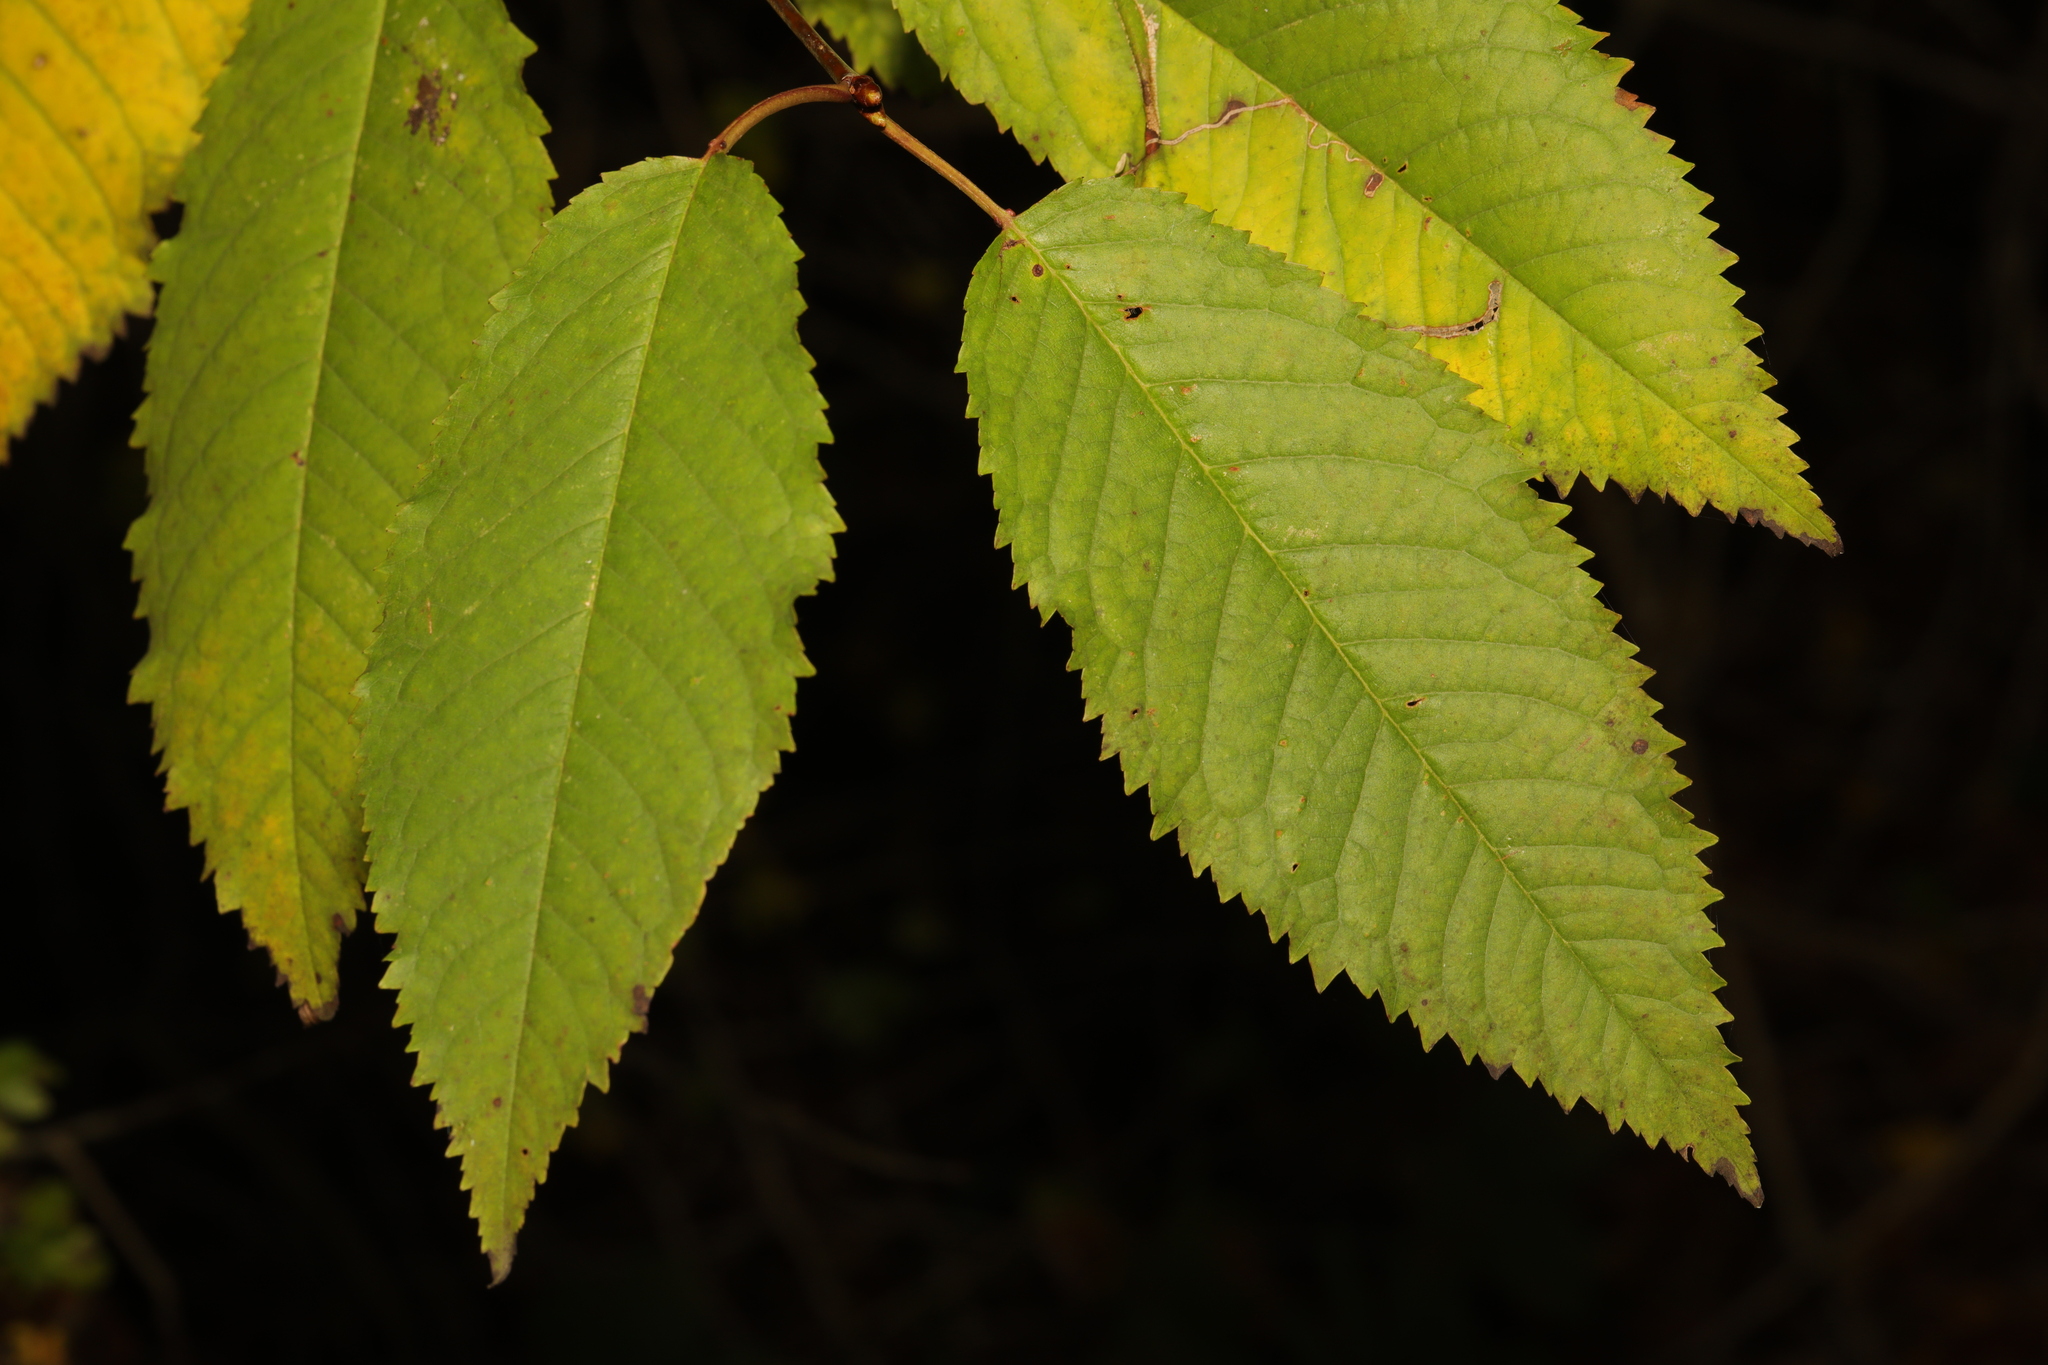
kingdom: Plantae
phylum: Tracheophyta
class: Magnoliopsida
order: Rosales
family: Rosaceae
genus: Prunus
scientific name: Prunus avium
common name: Sweet cherry
